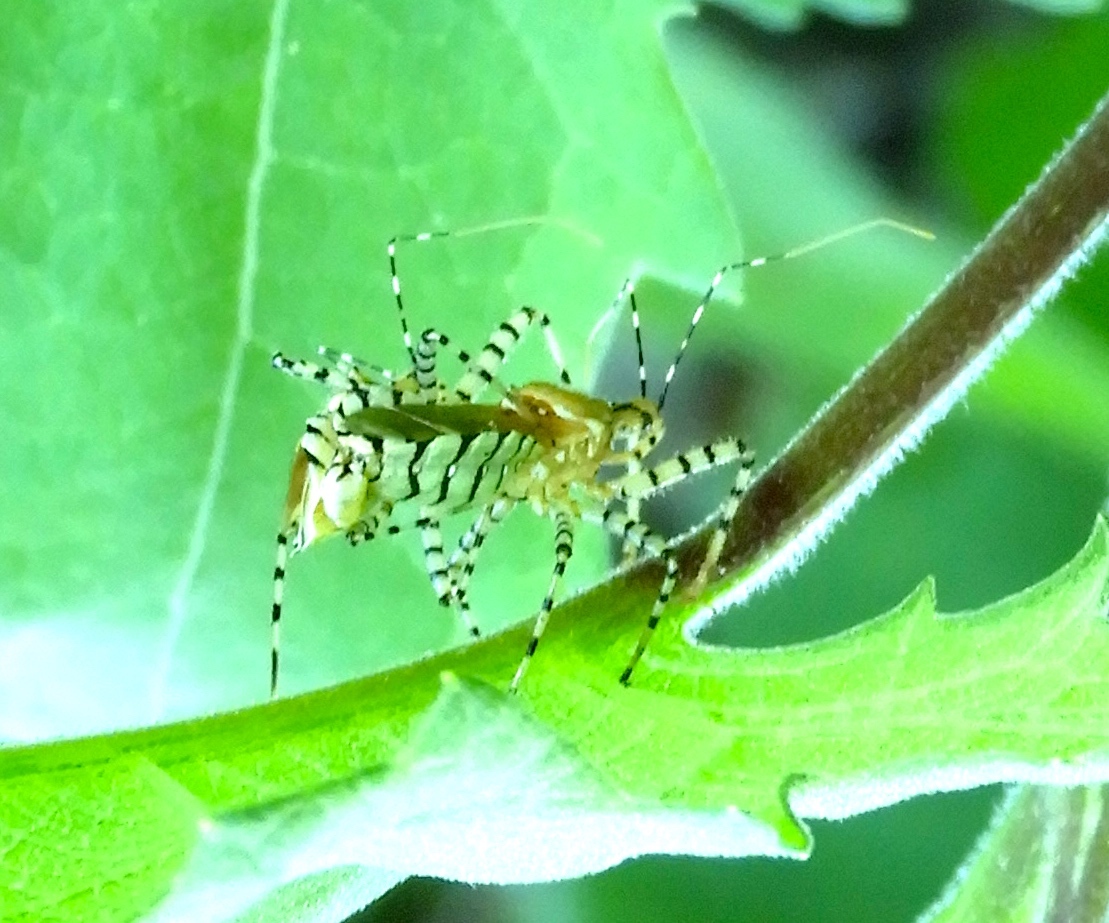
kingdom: Animalia
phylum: Arthropoda
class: Insecta
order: Hemiptera
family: Reduviidae
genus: Pselliopus
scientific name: Pselliopus
